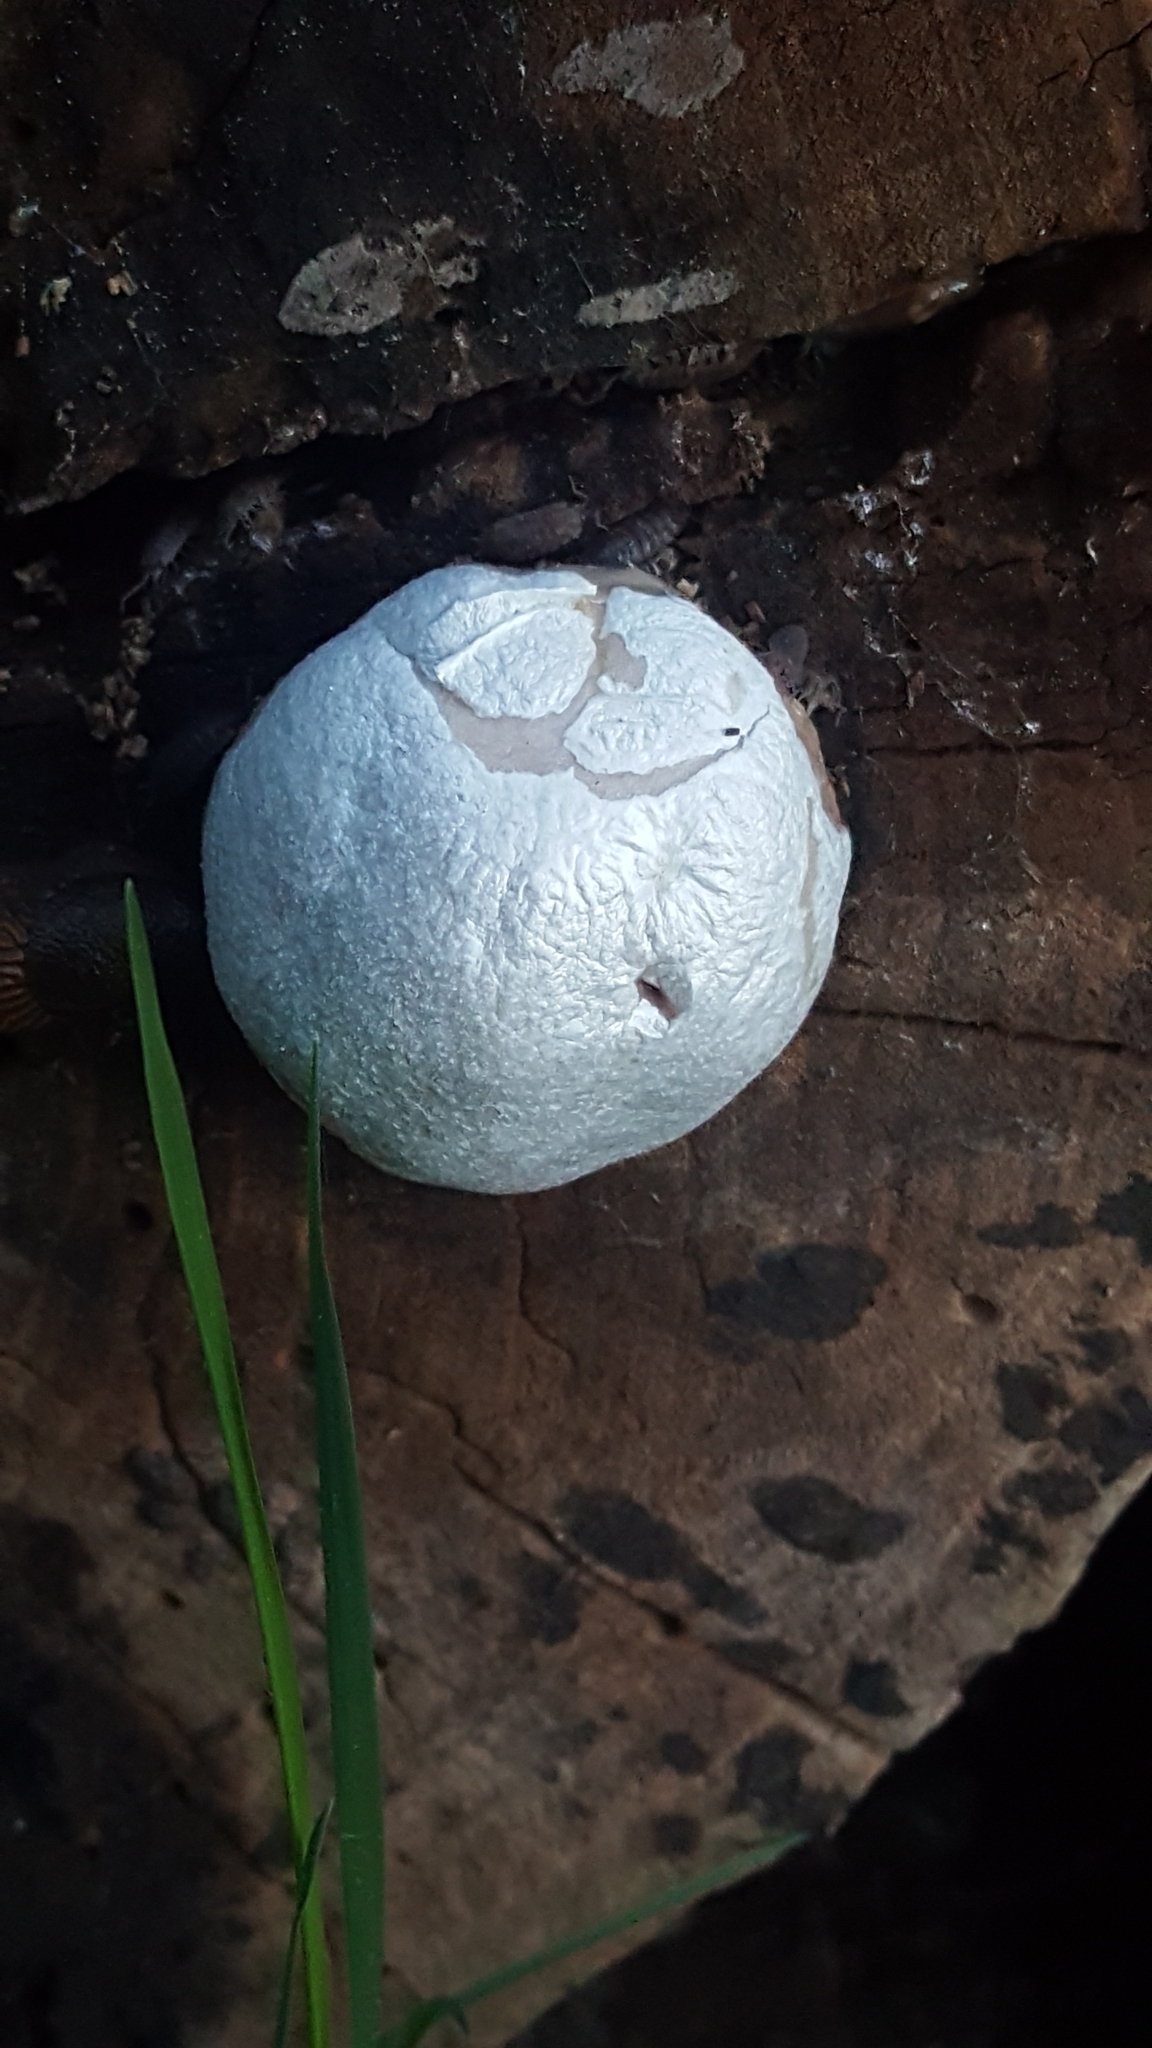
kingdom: Protozoa
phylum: Mycetozoa
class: Myxomycetes
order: Cribrariales
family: Tubiferaceae
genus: Reticularia
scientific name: Reticularia lycoperdon
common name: False puffball
